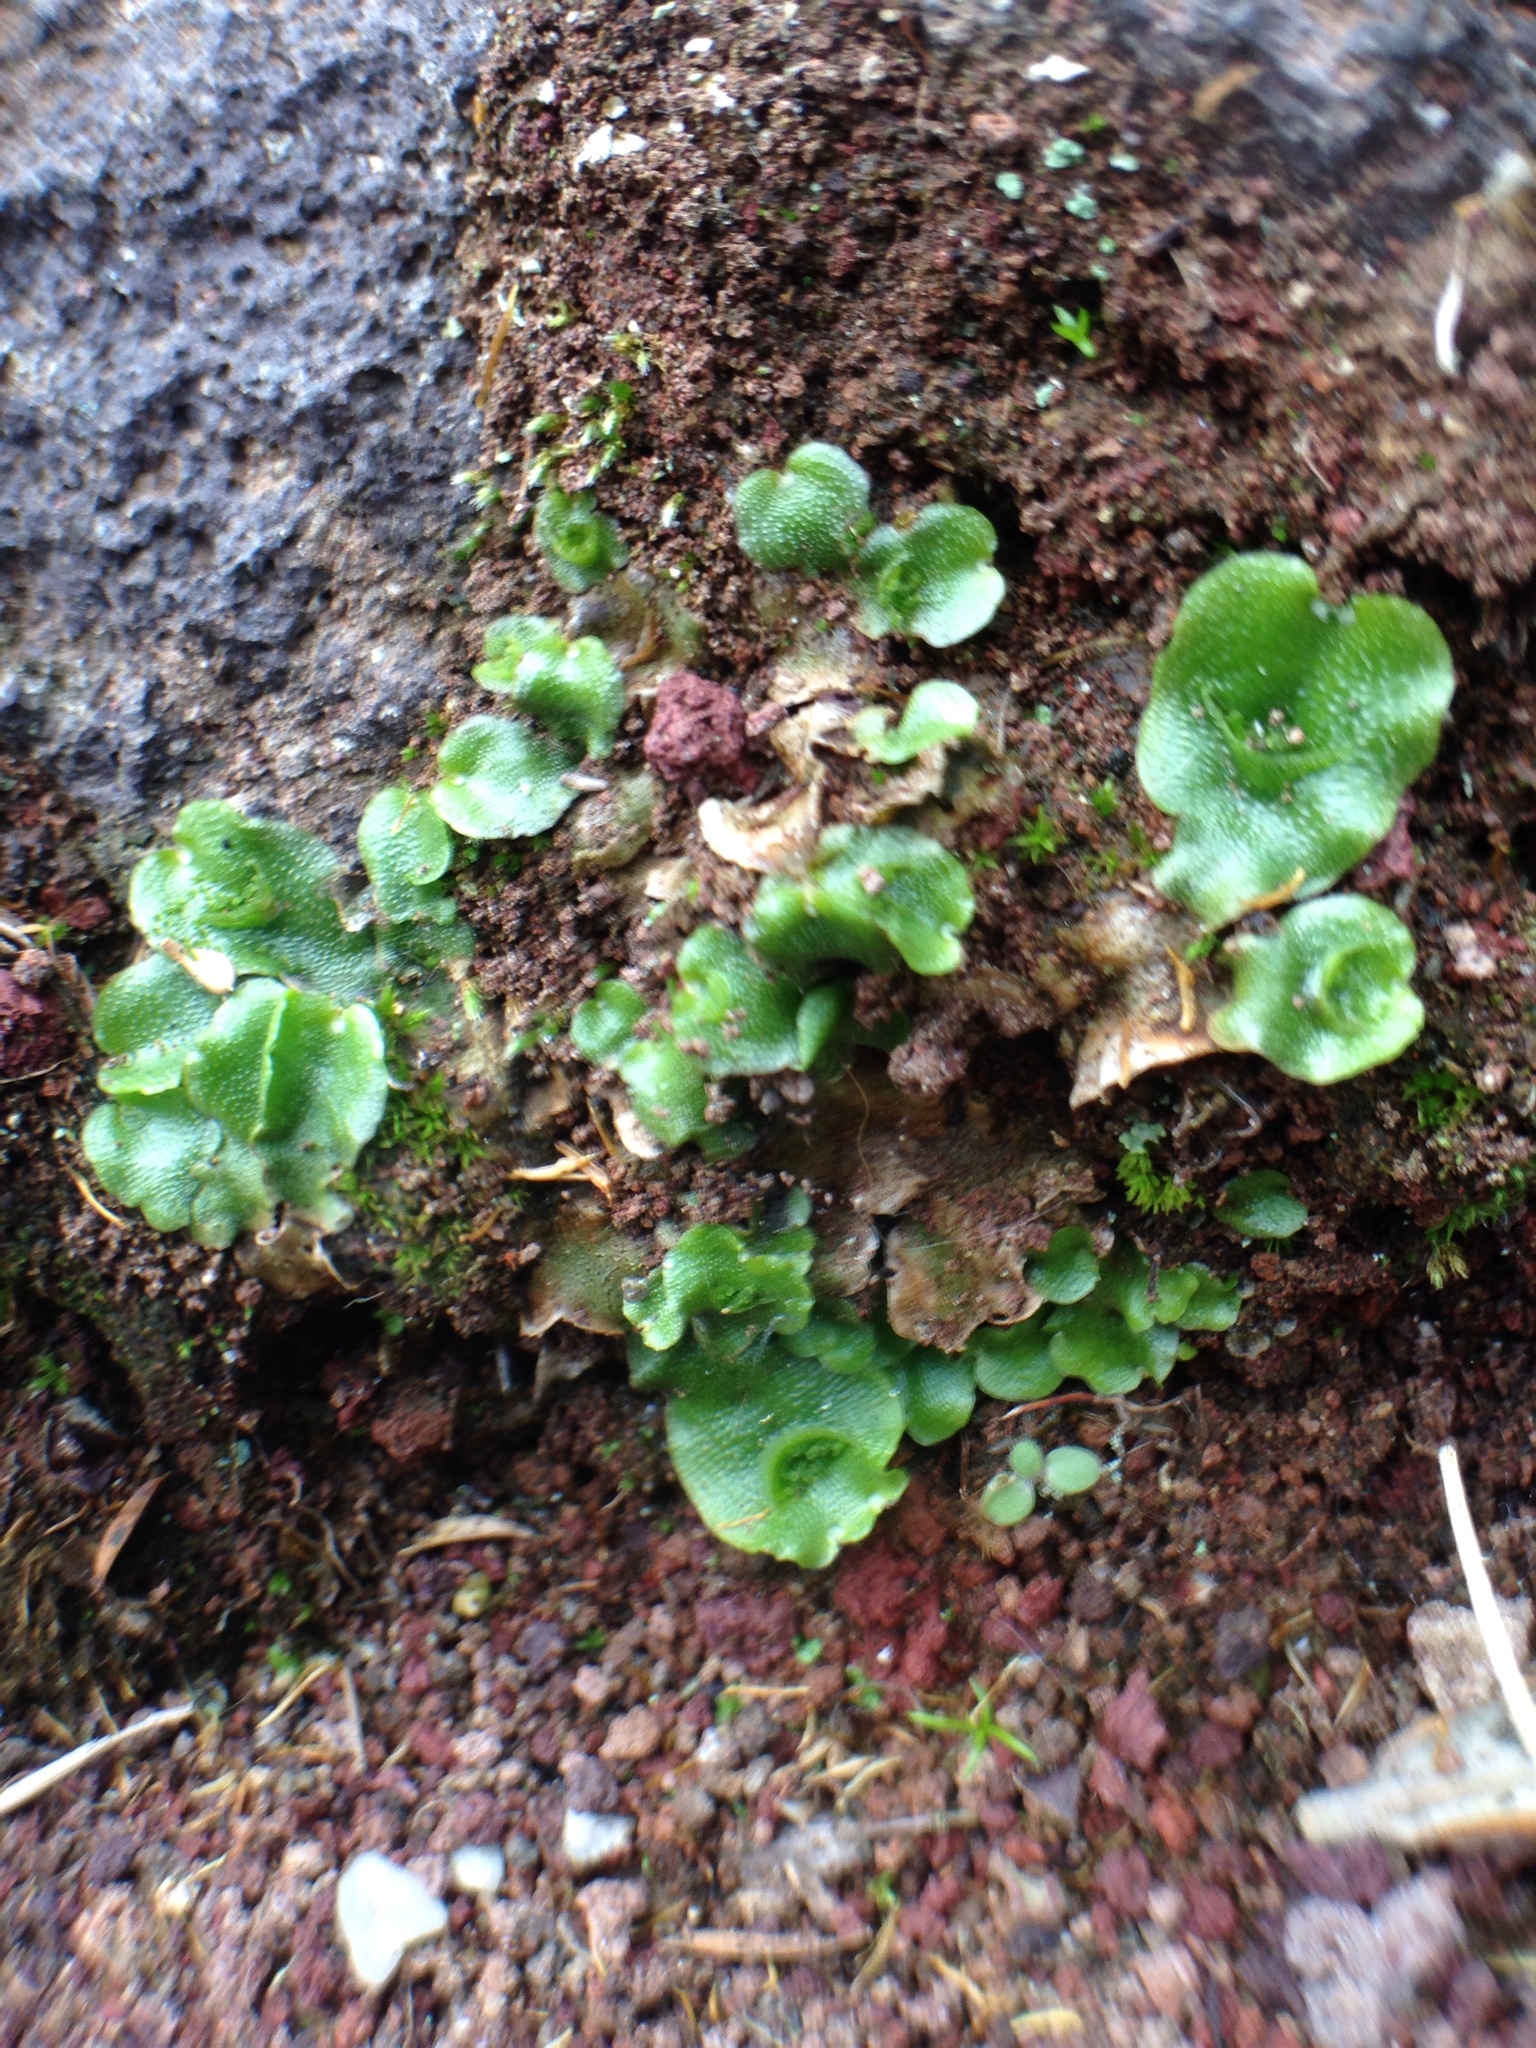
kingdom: Plantae
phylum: Marchantiophyta
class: Marchantiopsida
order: Lunulariales
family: Lunulariaceae
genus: Lunularia
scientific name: Lunularia cruciata
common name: Crescent-cup liverwort
